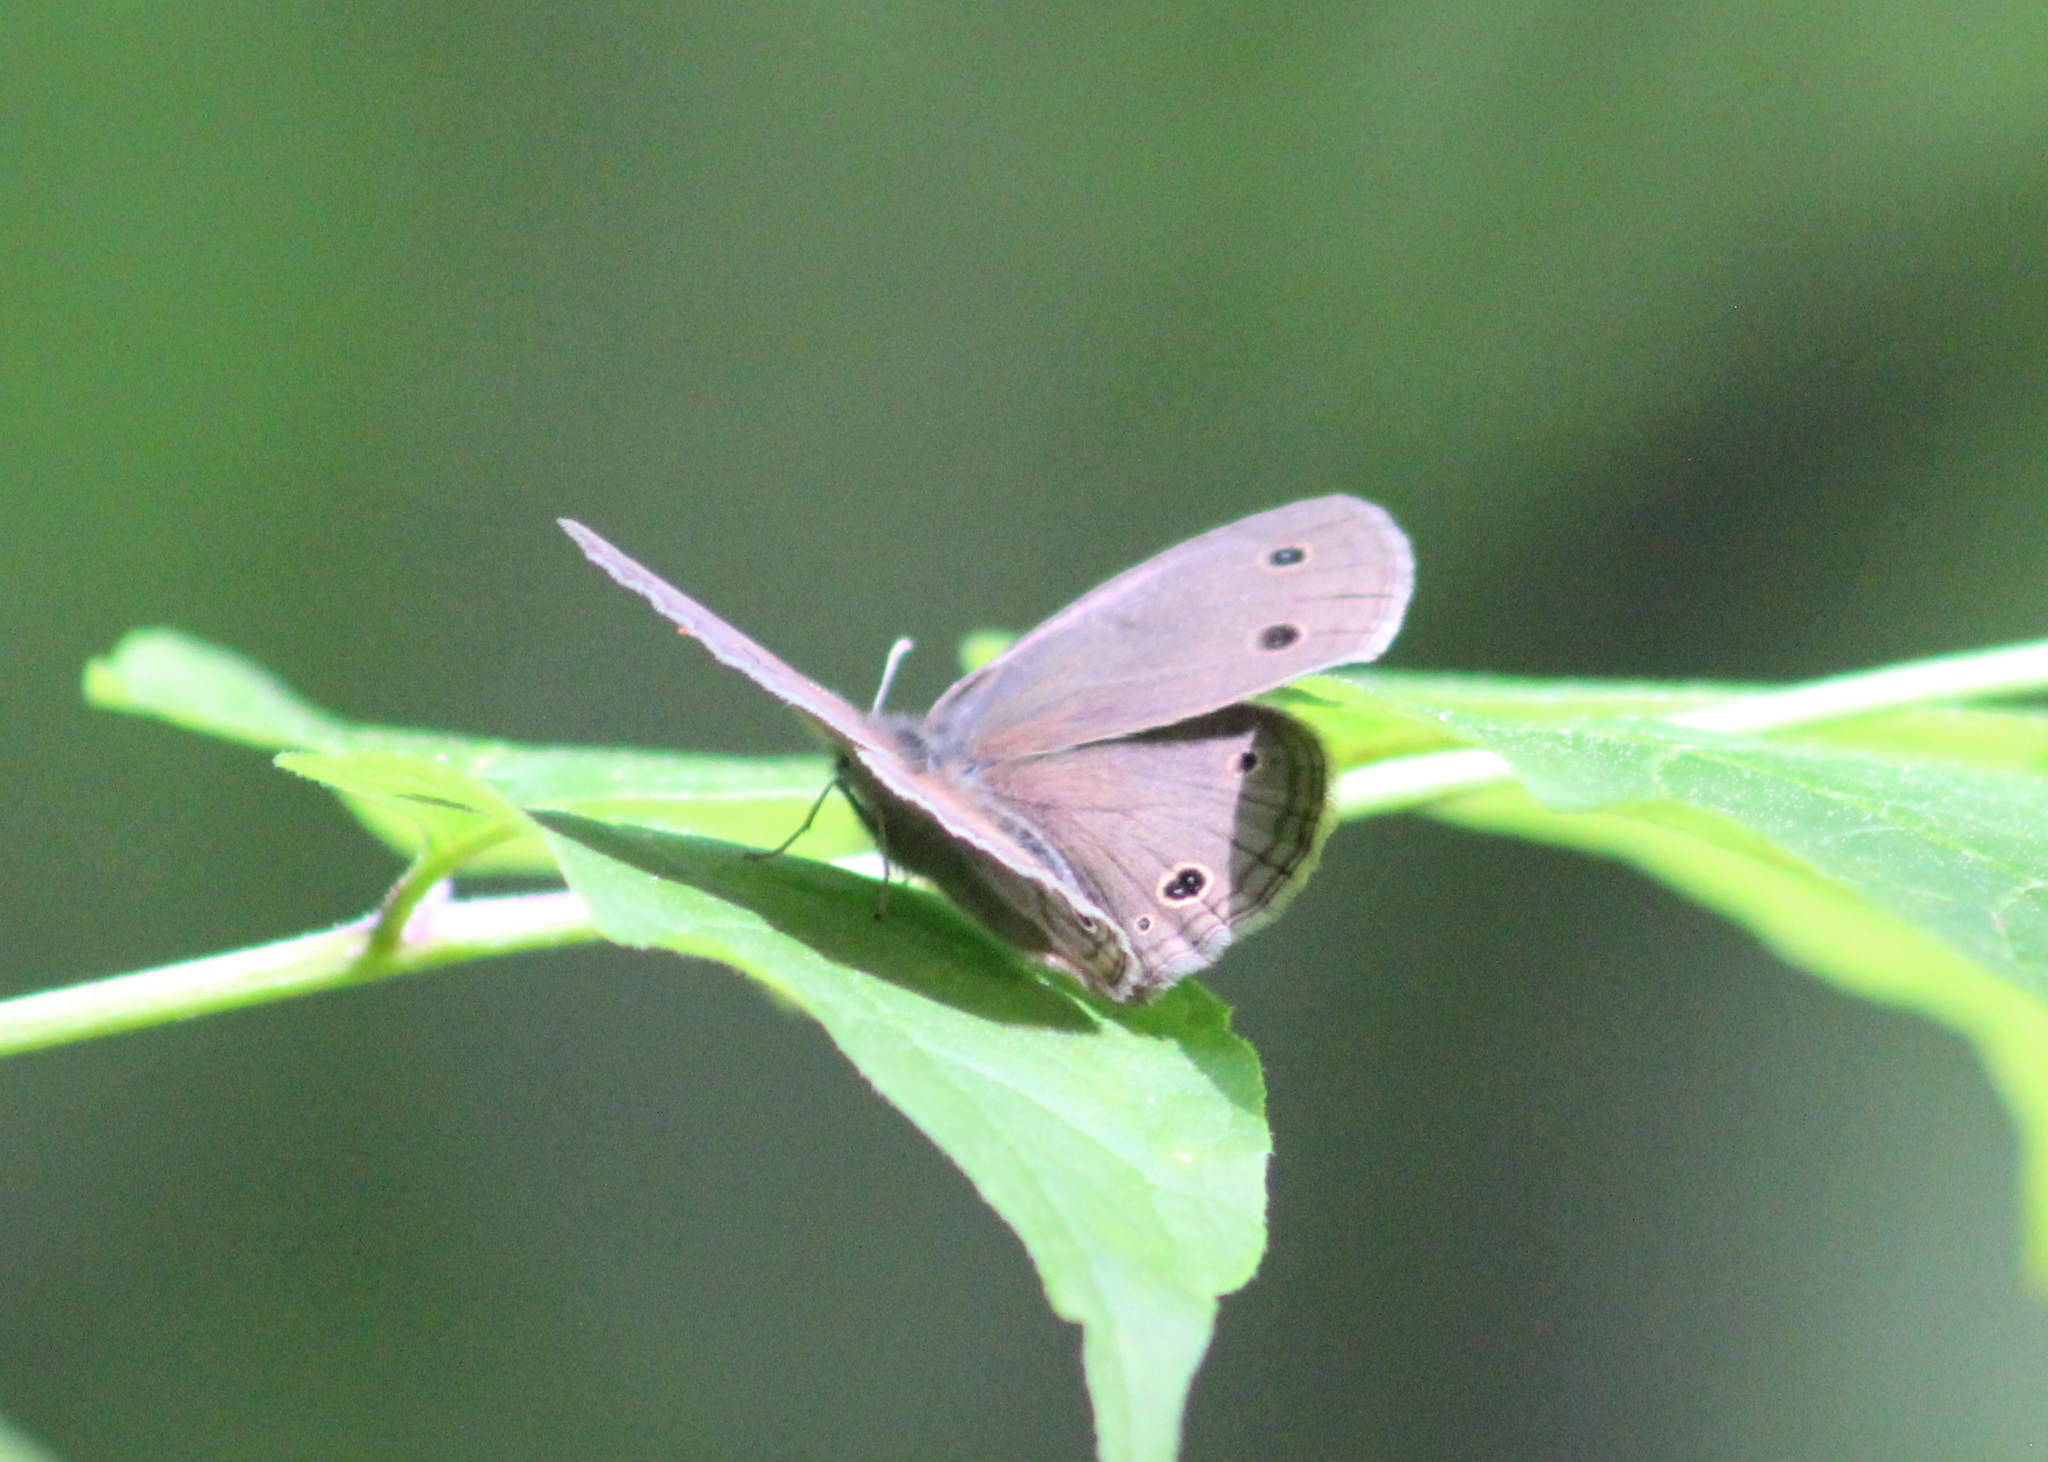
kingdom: Animalia
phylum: Arthropoda
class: Insecta
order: Lepidoptera
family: Nymphalidae
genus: Euptychia
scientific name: Euptychia cymela
